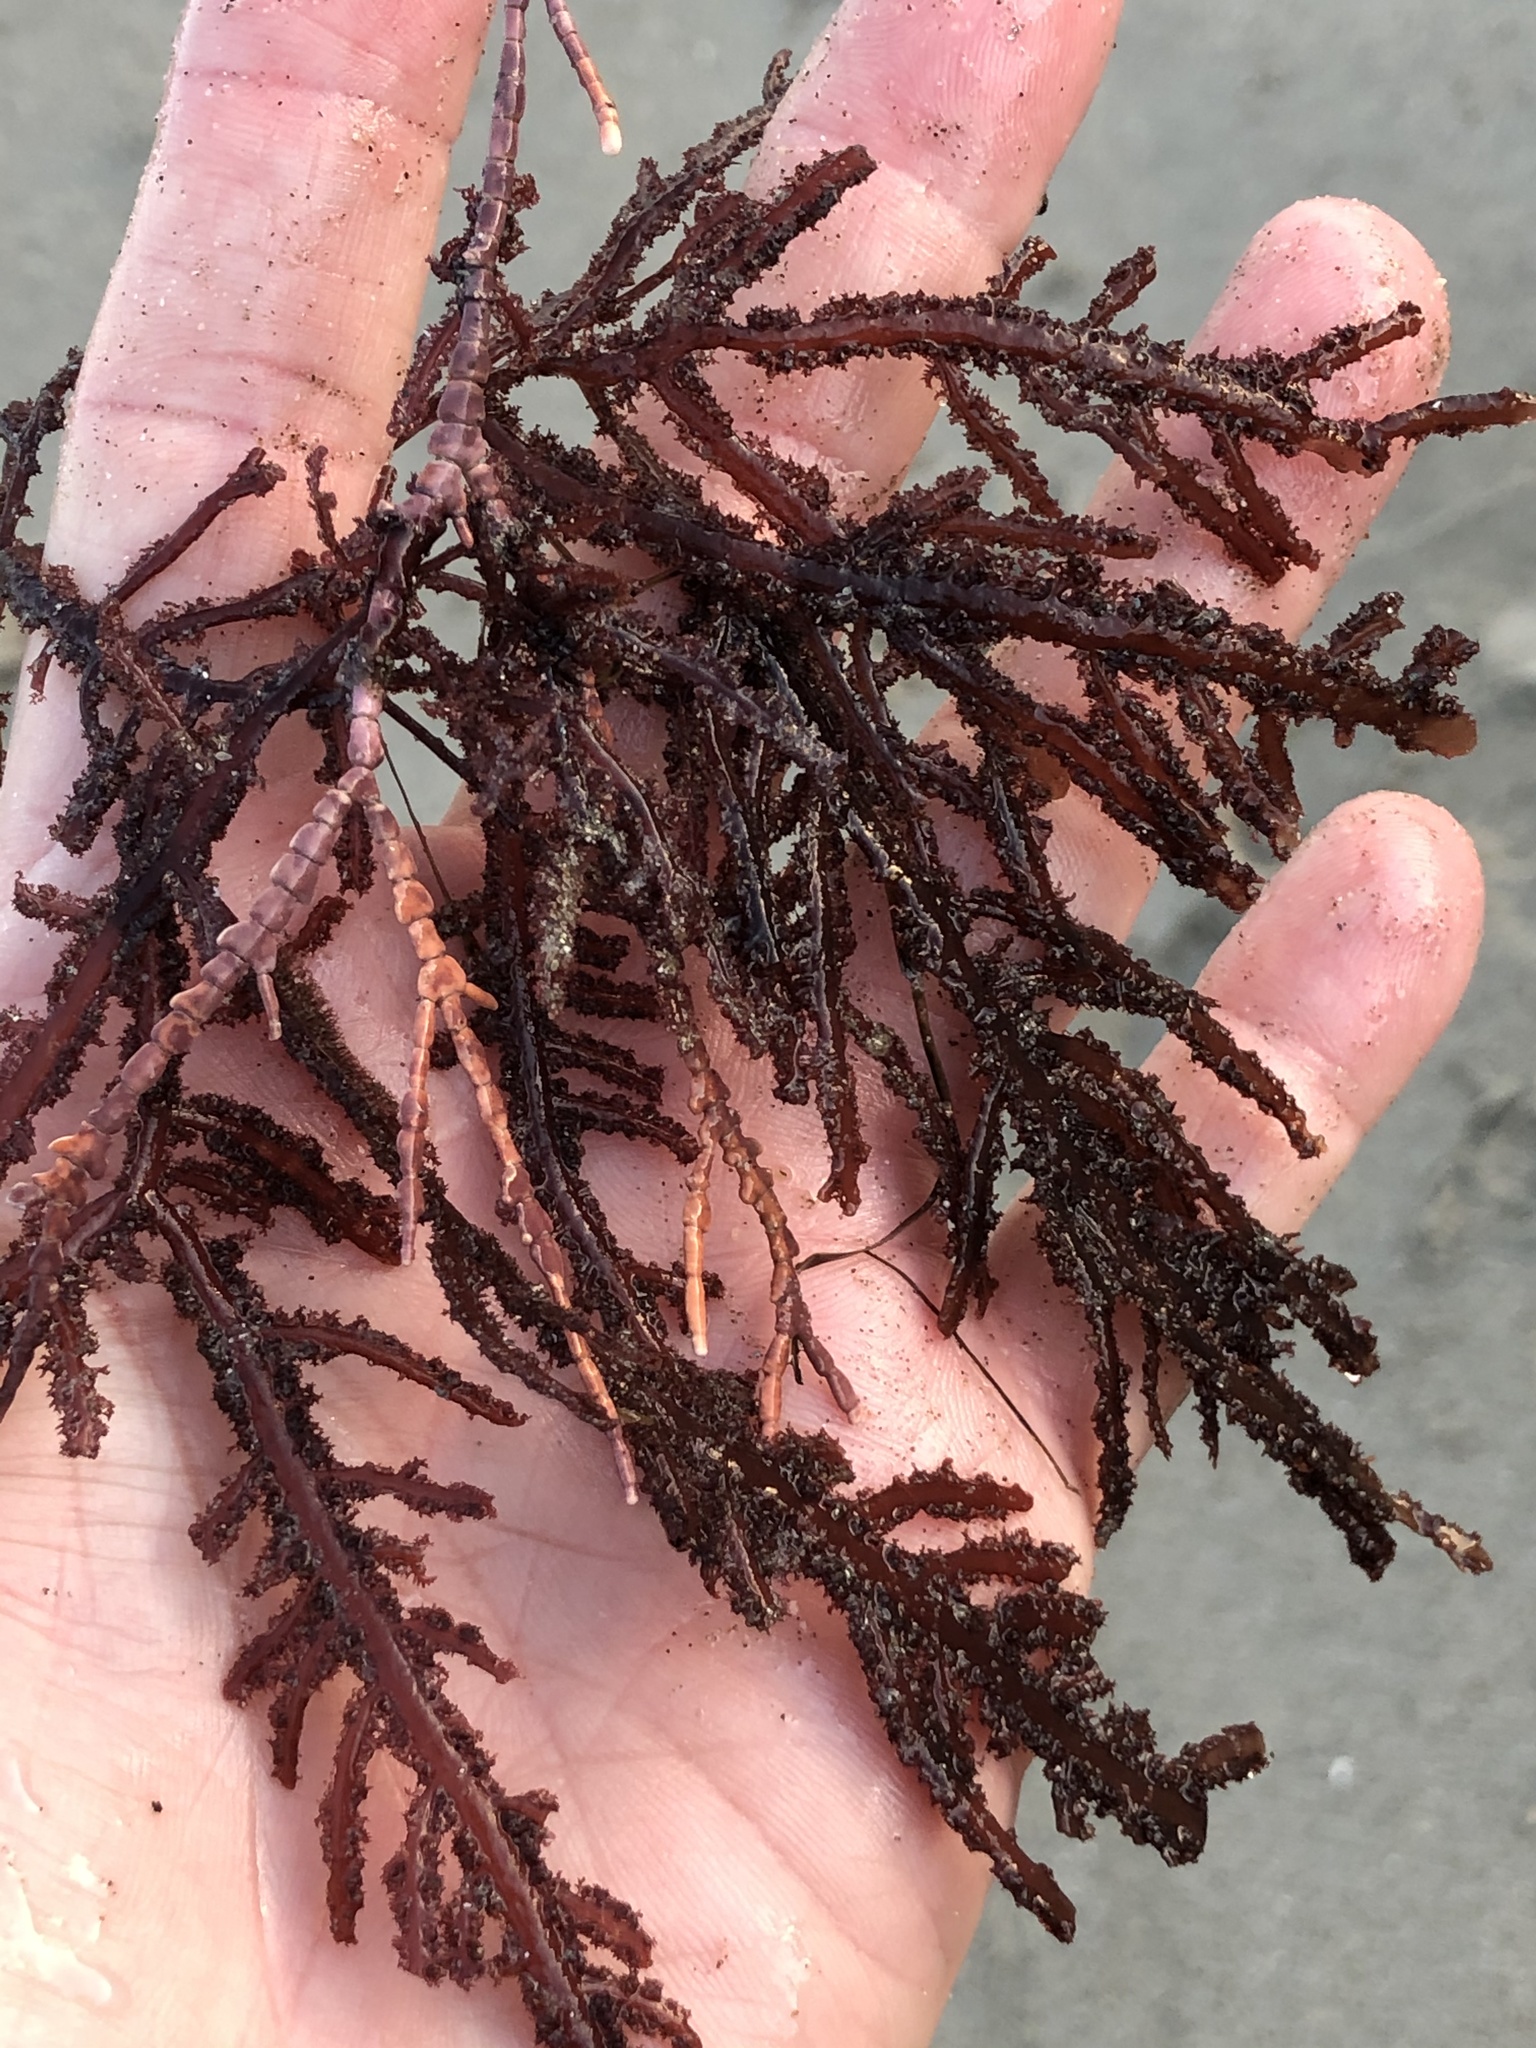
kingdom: Plantae
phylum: Rhodophyta
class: Florideophyceae
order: Ceramiales
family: Wrangeliaceae
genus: Neoptilota
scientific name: Neoptilota densa
